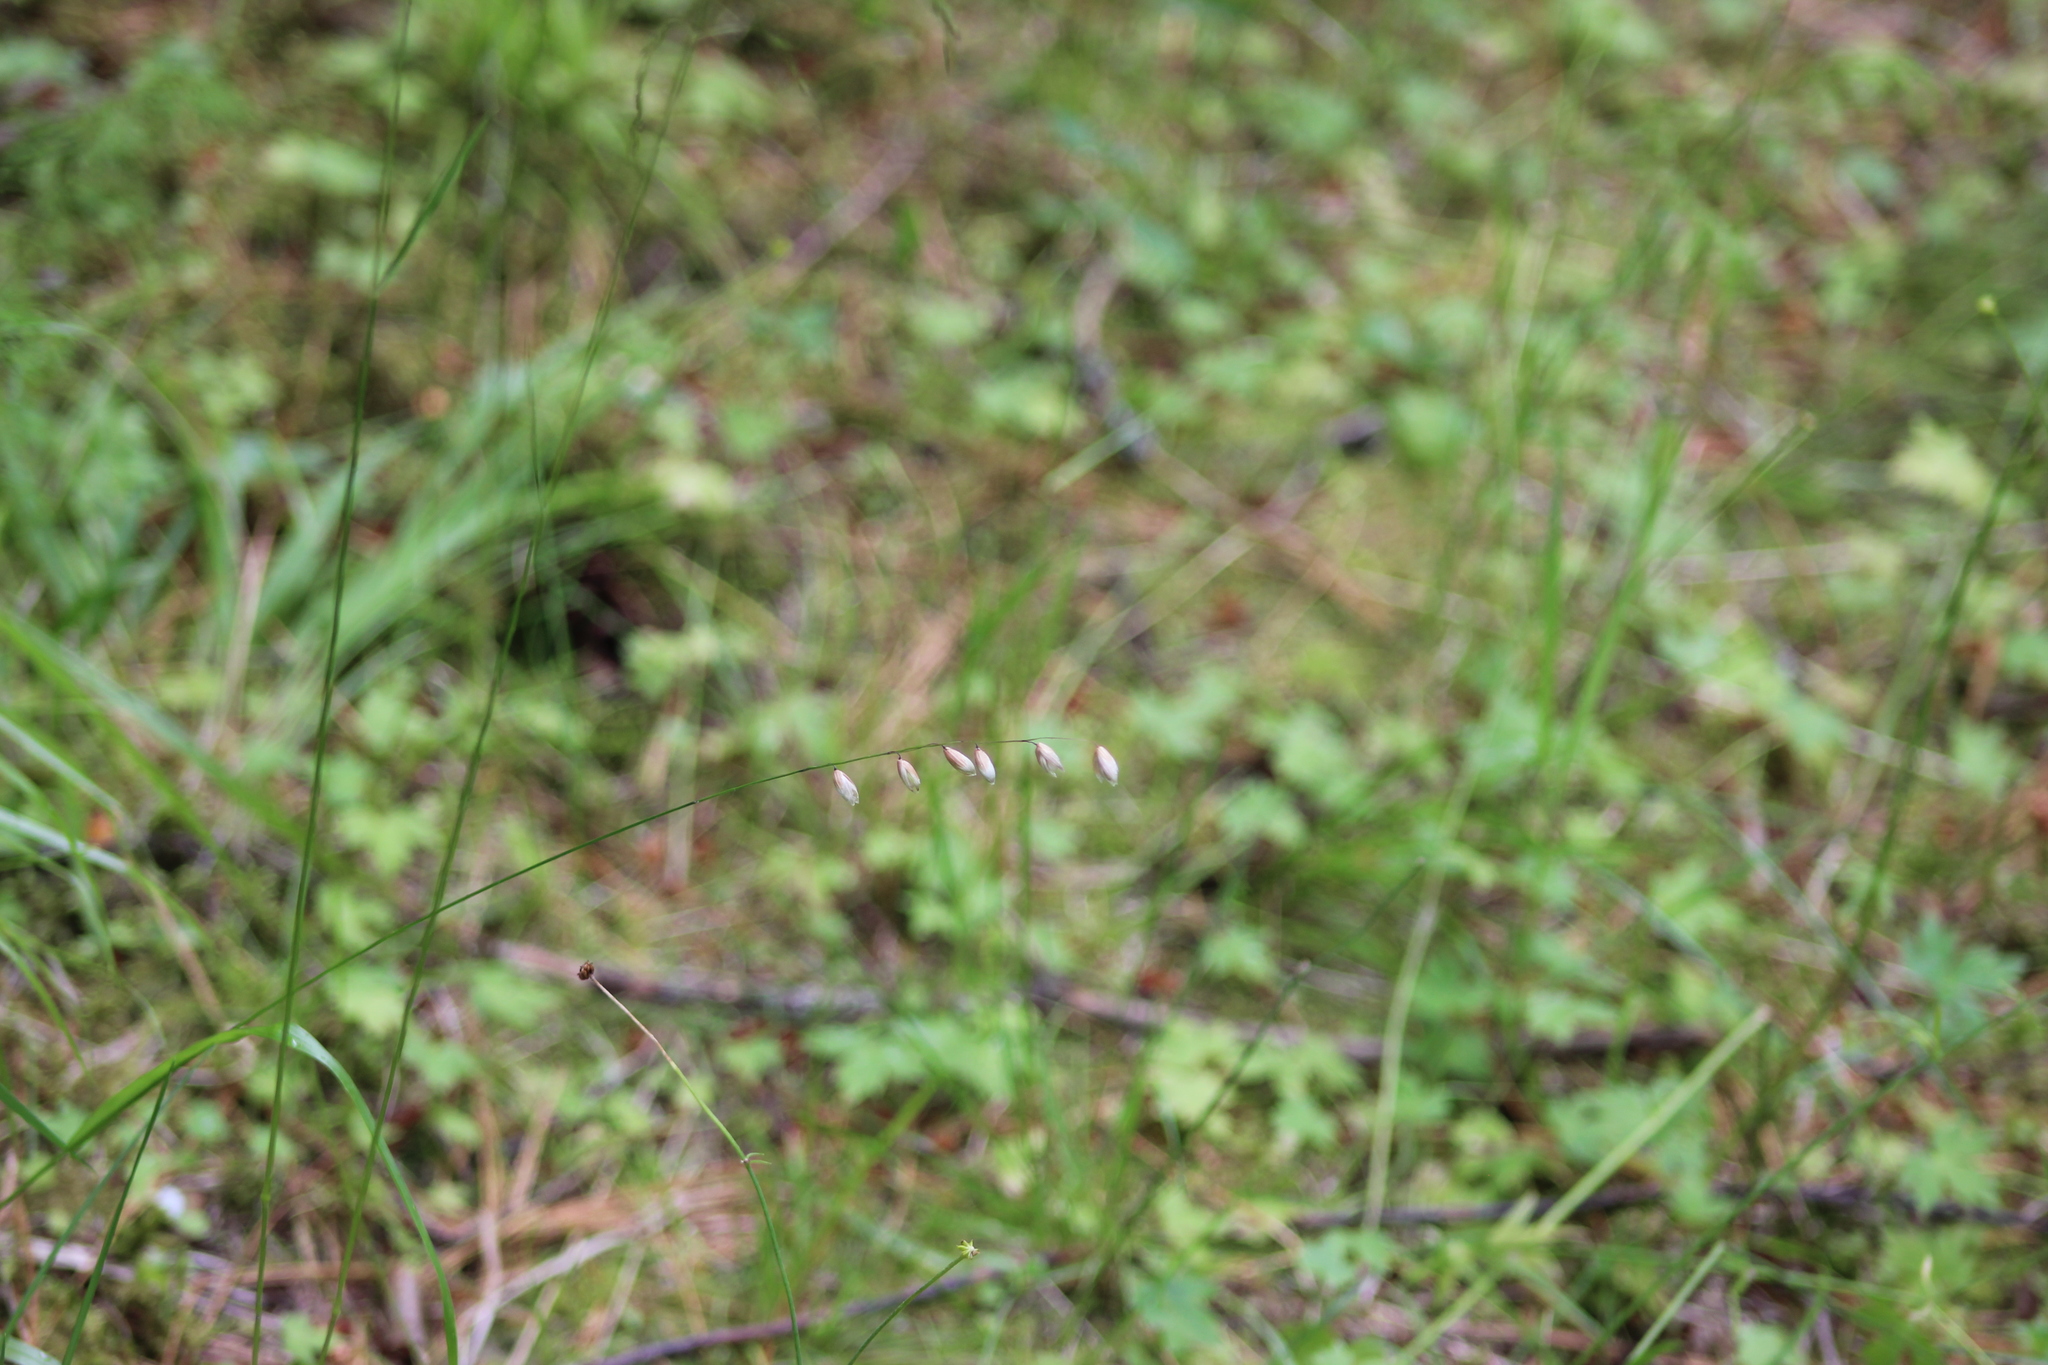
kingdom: Plantae
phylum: Tracheophyta
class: Liliopsida
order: Poales
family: Poaceae
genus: Melica
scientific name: Melica nutans
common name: Mountain melick
